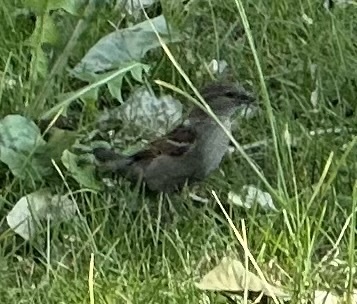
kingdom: Animalia
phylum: Chordata
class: Aves
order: Passeriformes
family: Passeridae
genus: Passer
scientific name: Passer domesticus
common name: House sparrow
